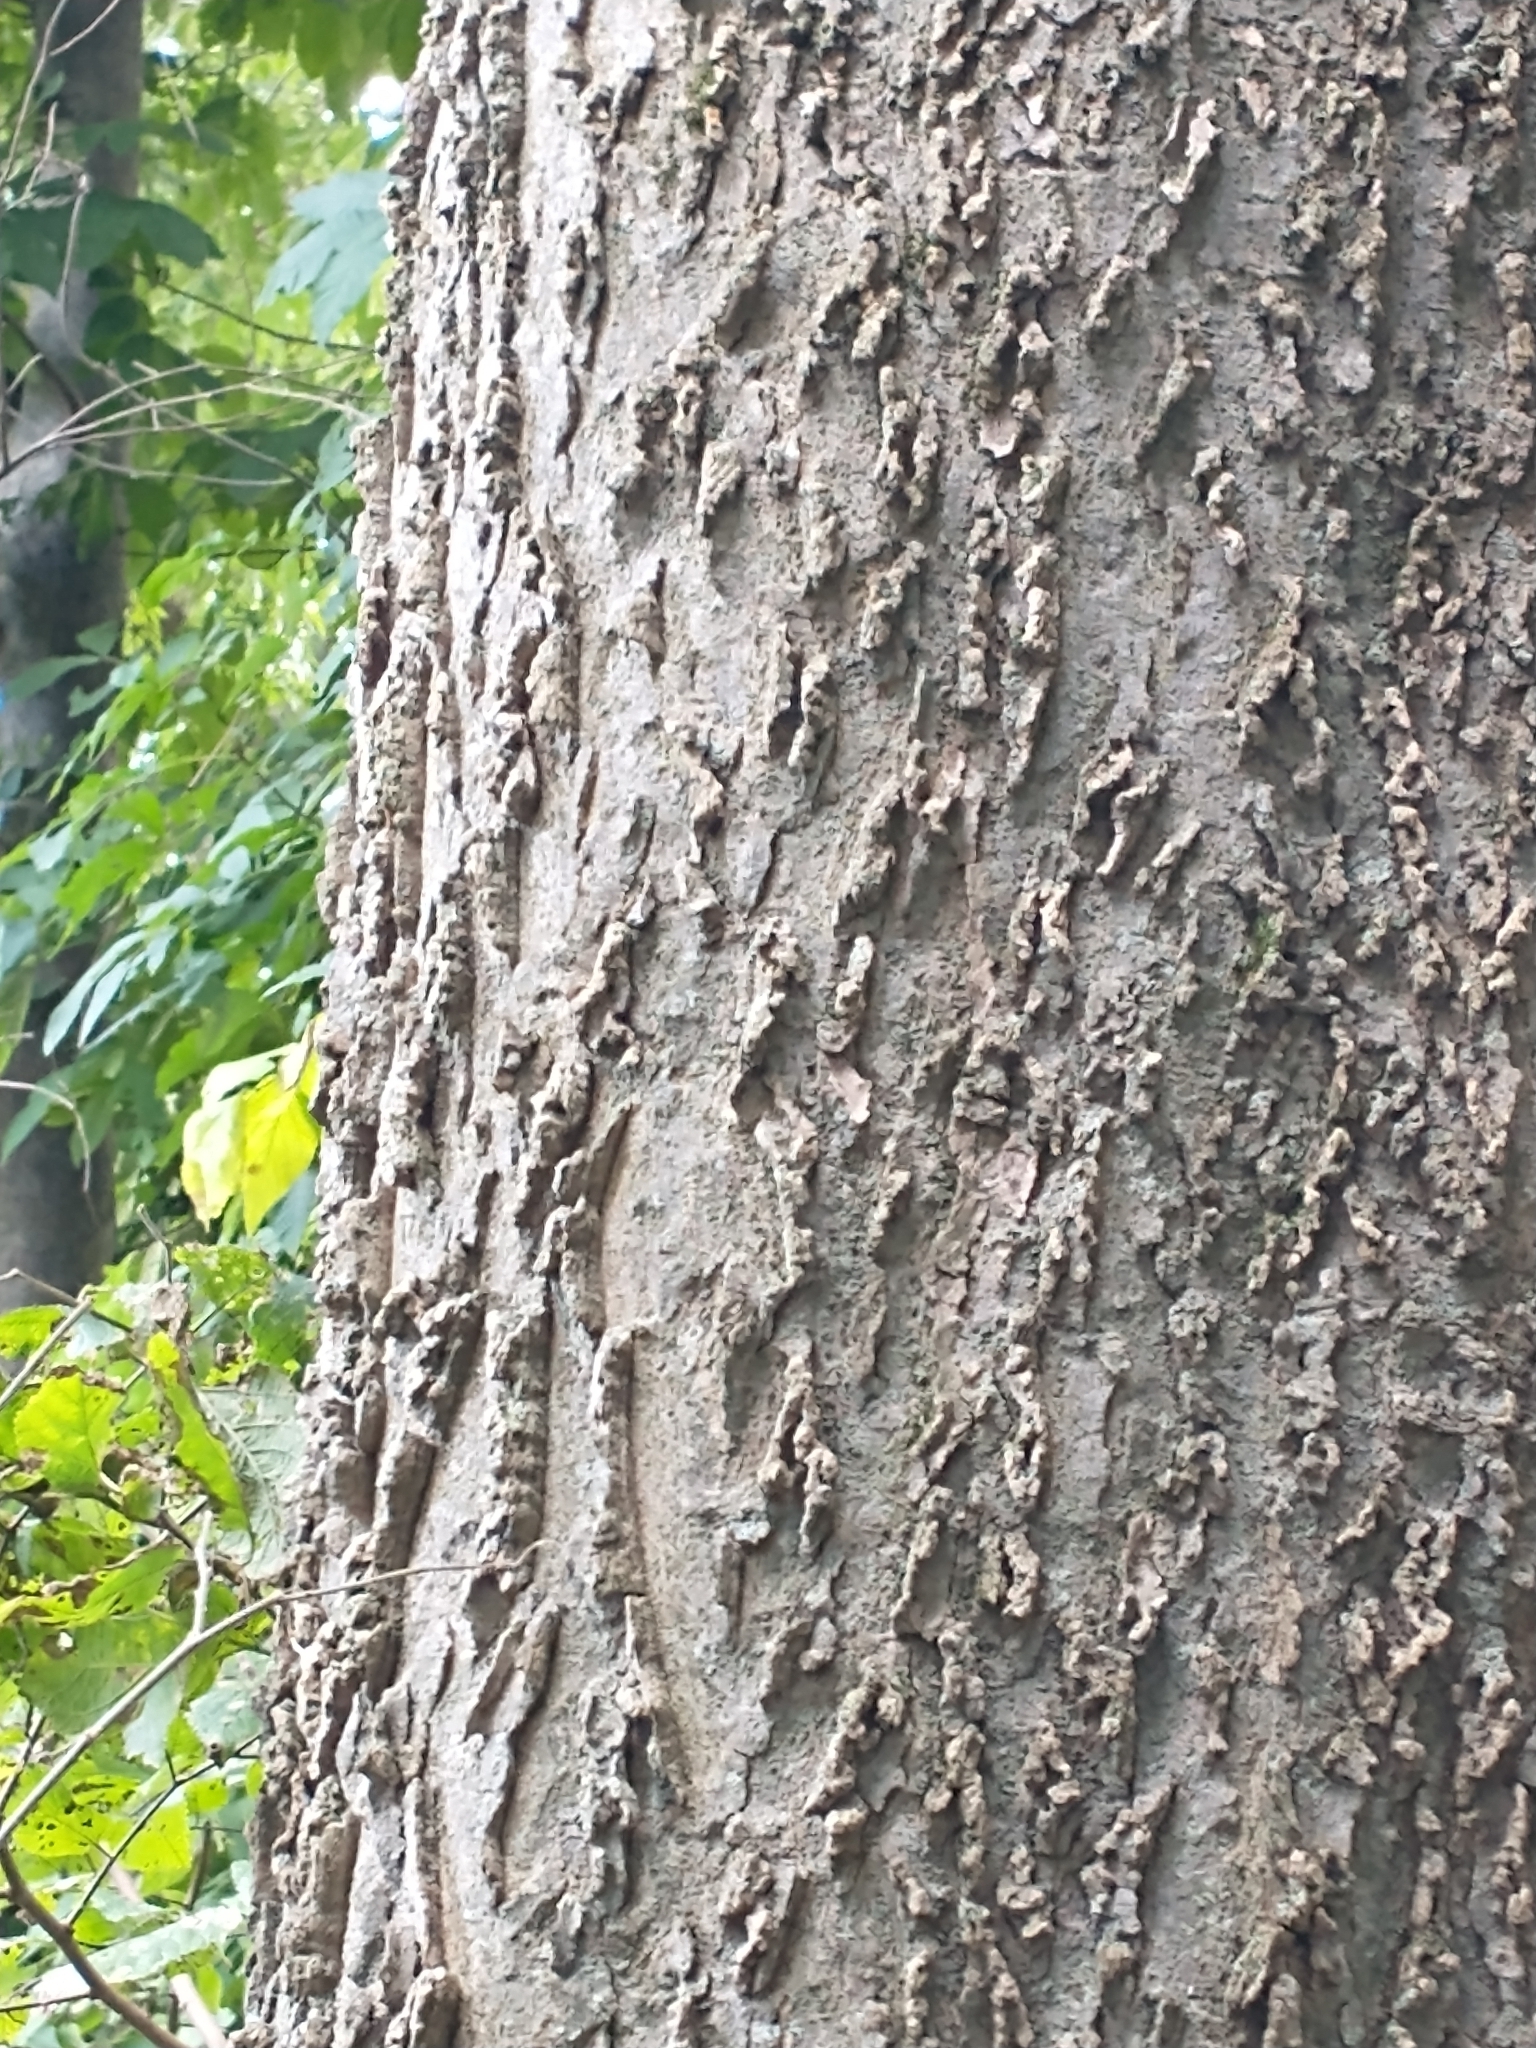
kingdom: Plantae
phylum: Tracheophyta
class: Magnoliopsida
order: Rosales
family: Cannabaceae
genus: Celtis
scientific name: Celtis occidentalis
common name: Common hackberry
